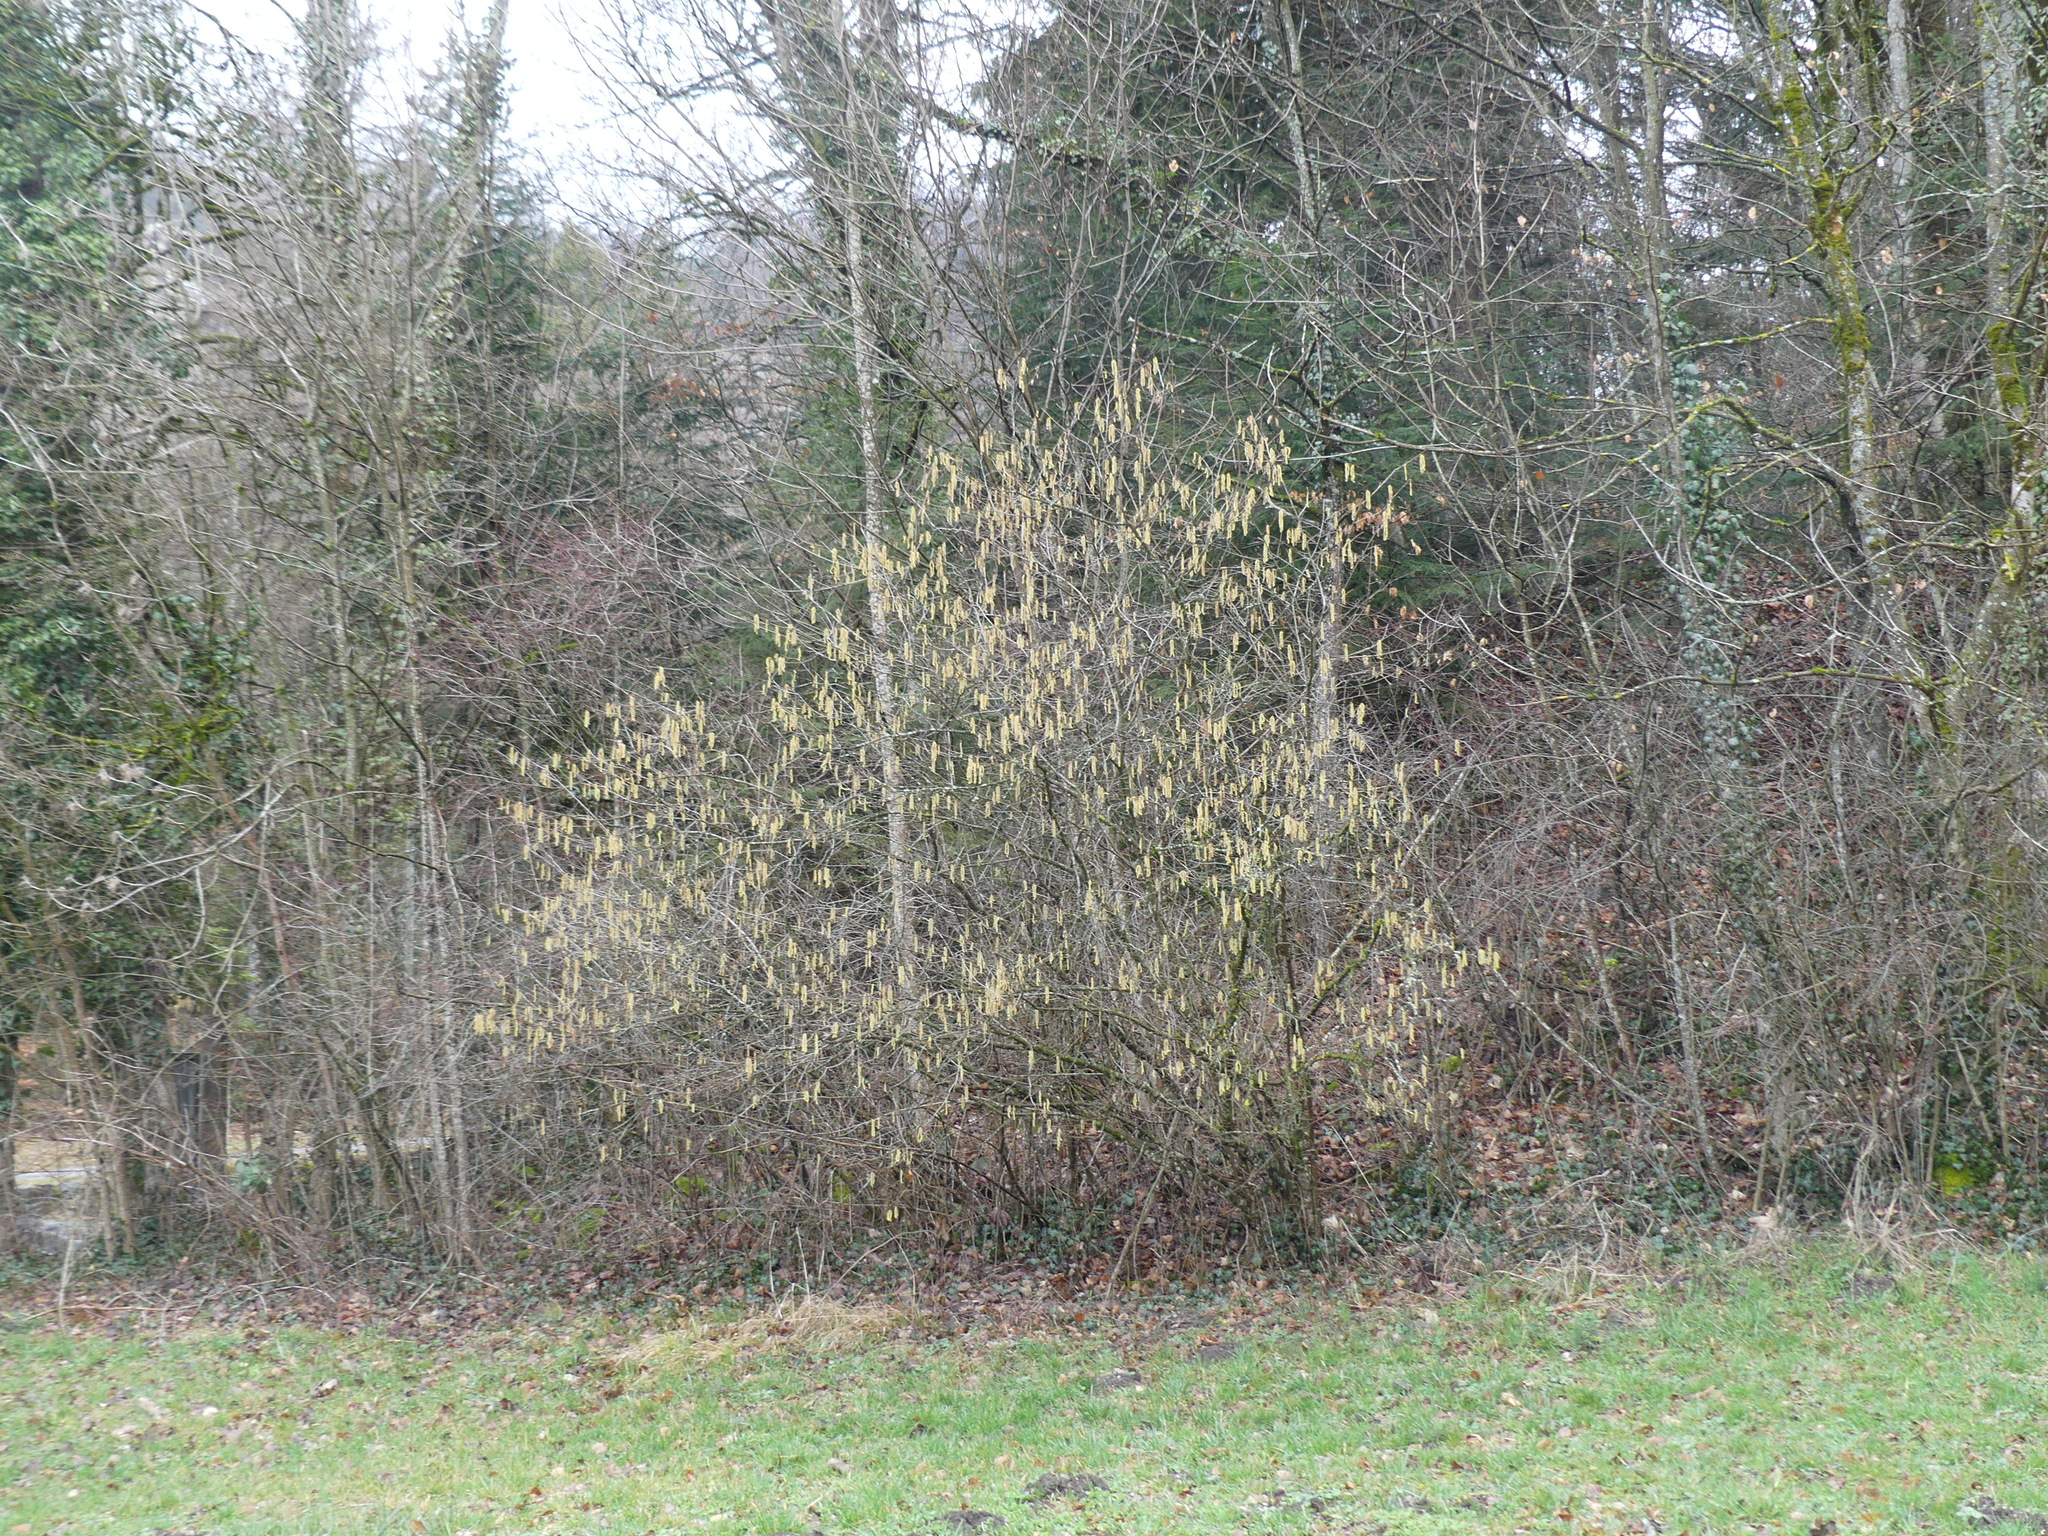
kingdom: Plantae
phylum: Tracheophyta
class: Magnoliopsida
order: Fagales
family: Betulaceae
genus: Corylus
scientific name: Corylus avellana
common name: European hazel
